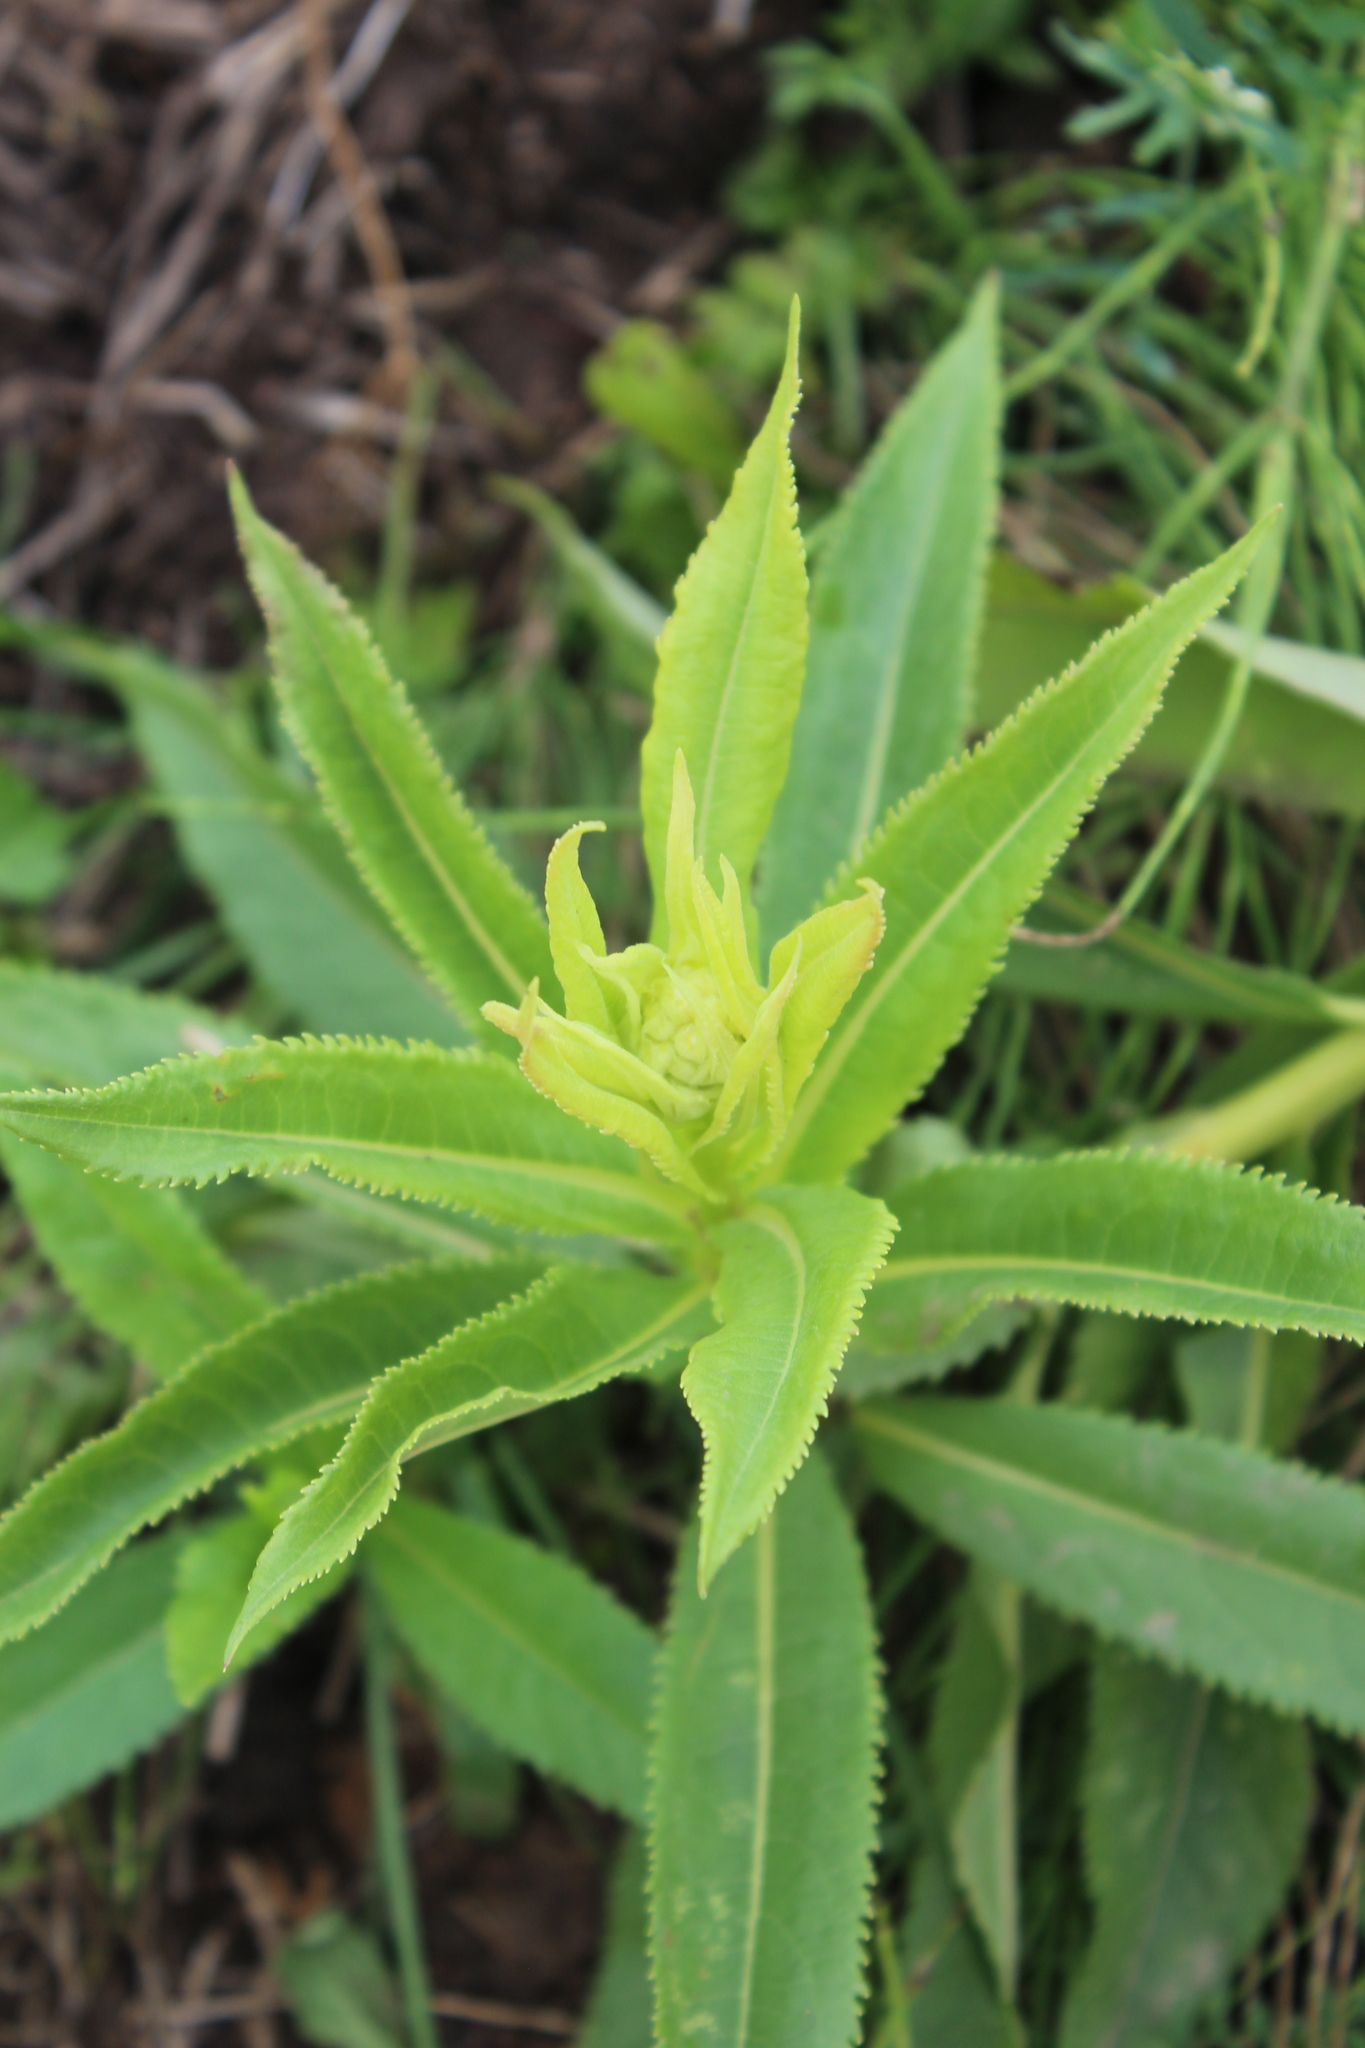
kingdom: Plantae
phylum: Tracheophyta
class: Magnoliopsida
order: Asterales
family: Asteraceae
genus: Senecio
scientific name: Senecio sarracenicus
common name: Broad-leaved ragwort
